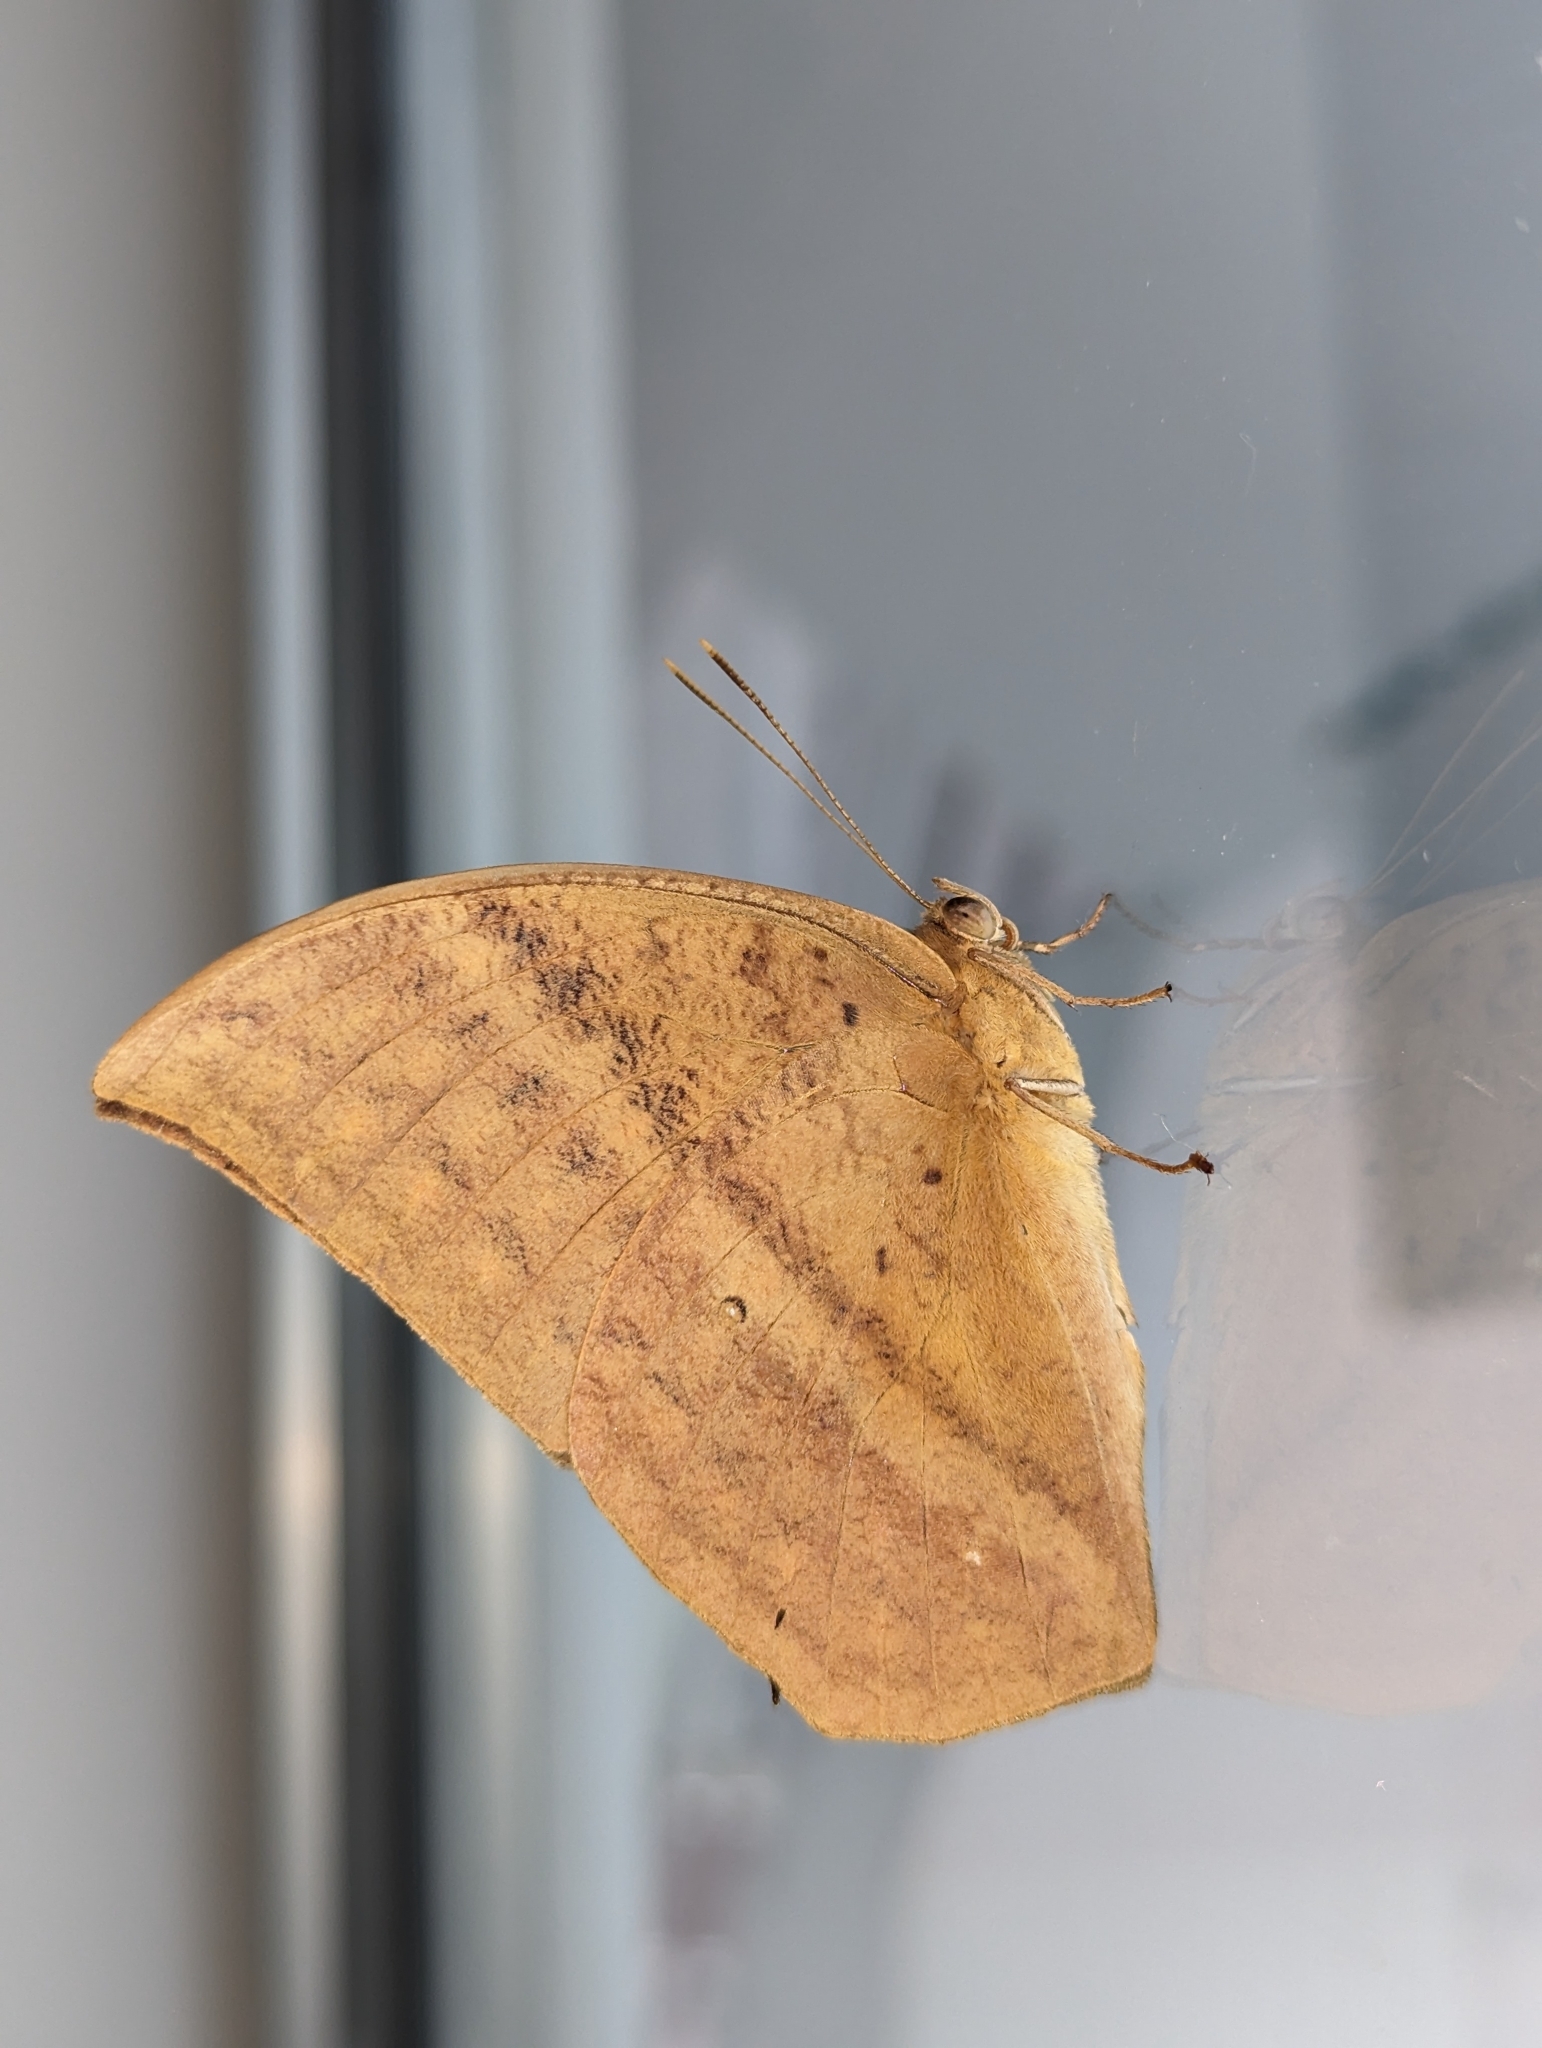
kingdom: Animalia
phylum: Arthropoda
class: Insecta
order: Lepidoptera
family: Nymphalidae
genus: Discophora
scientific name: Discophora sondaica
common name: Common duffer
